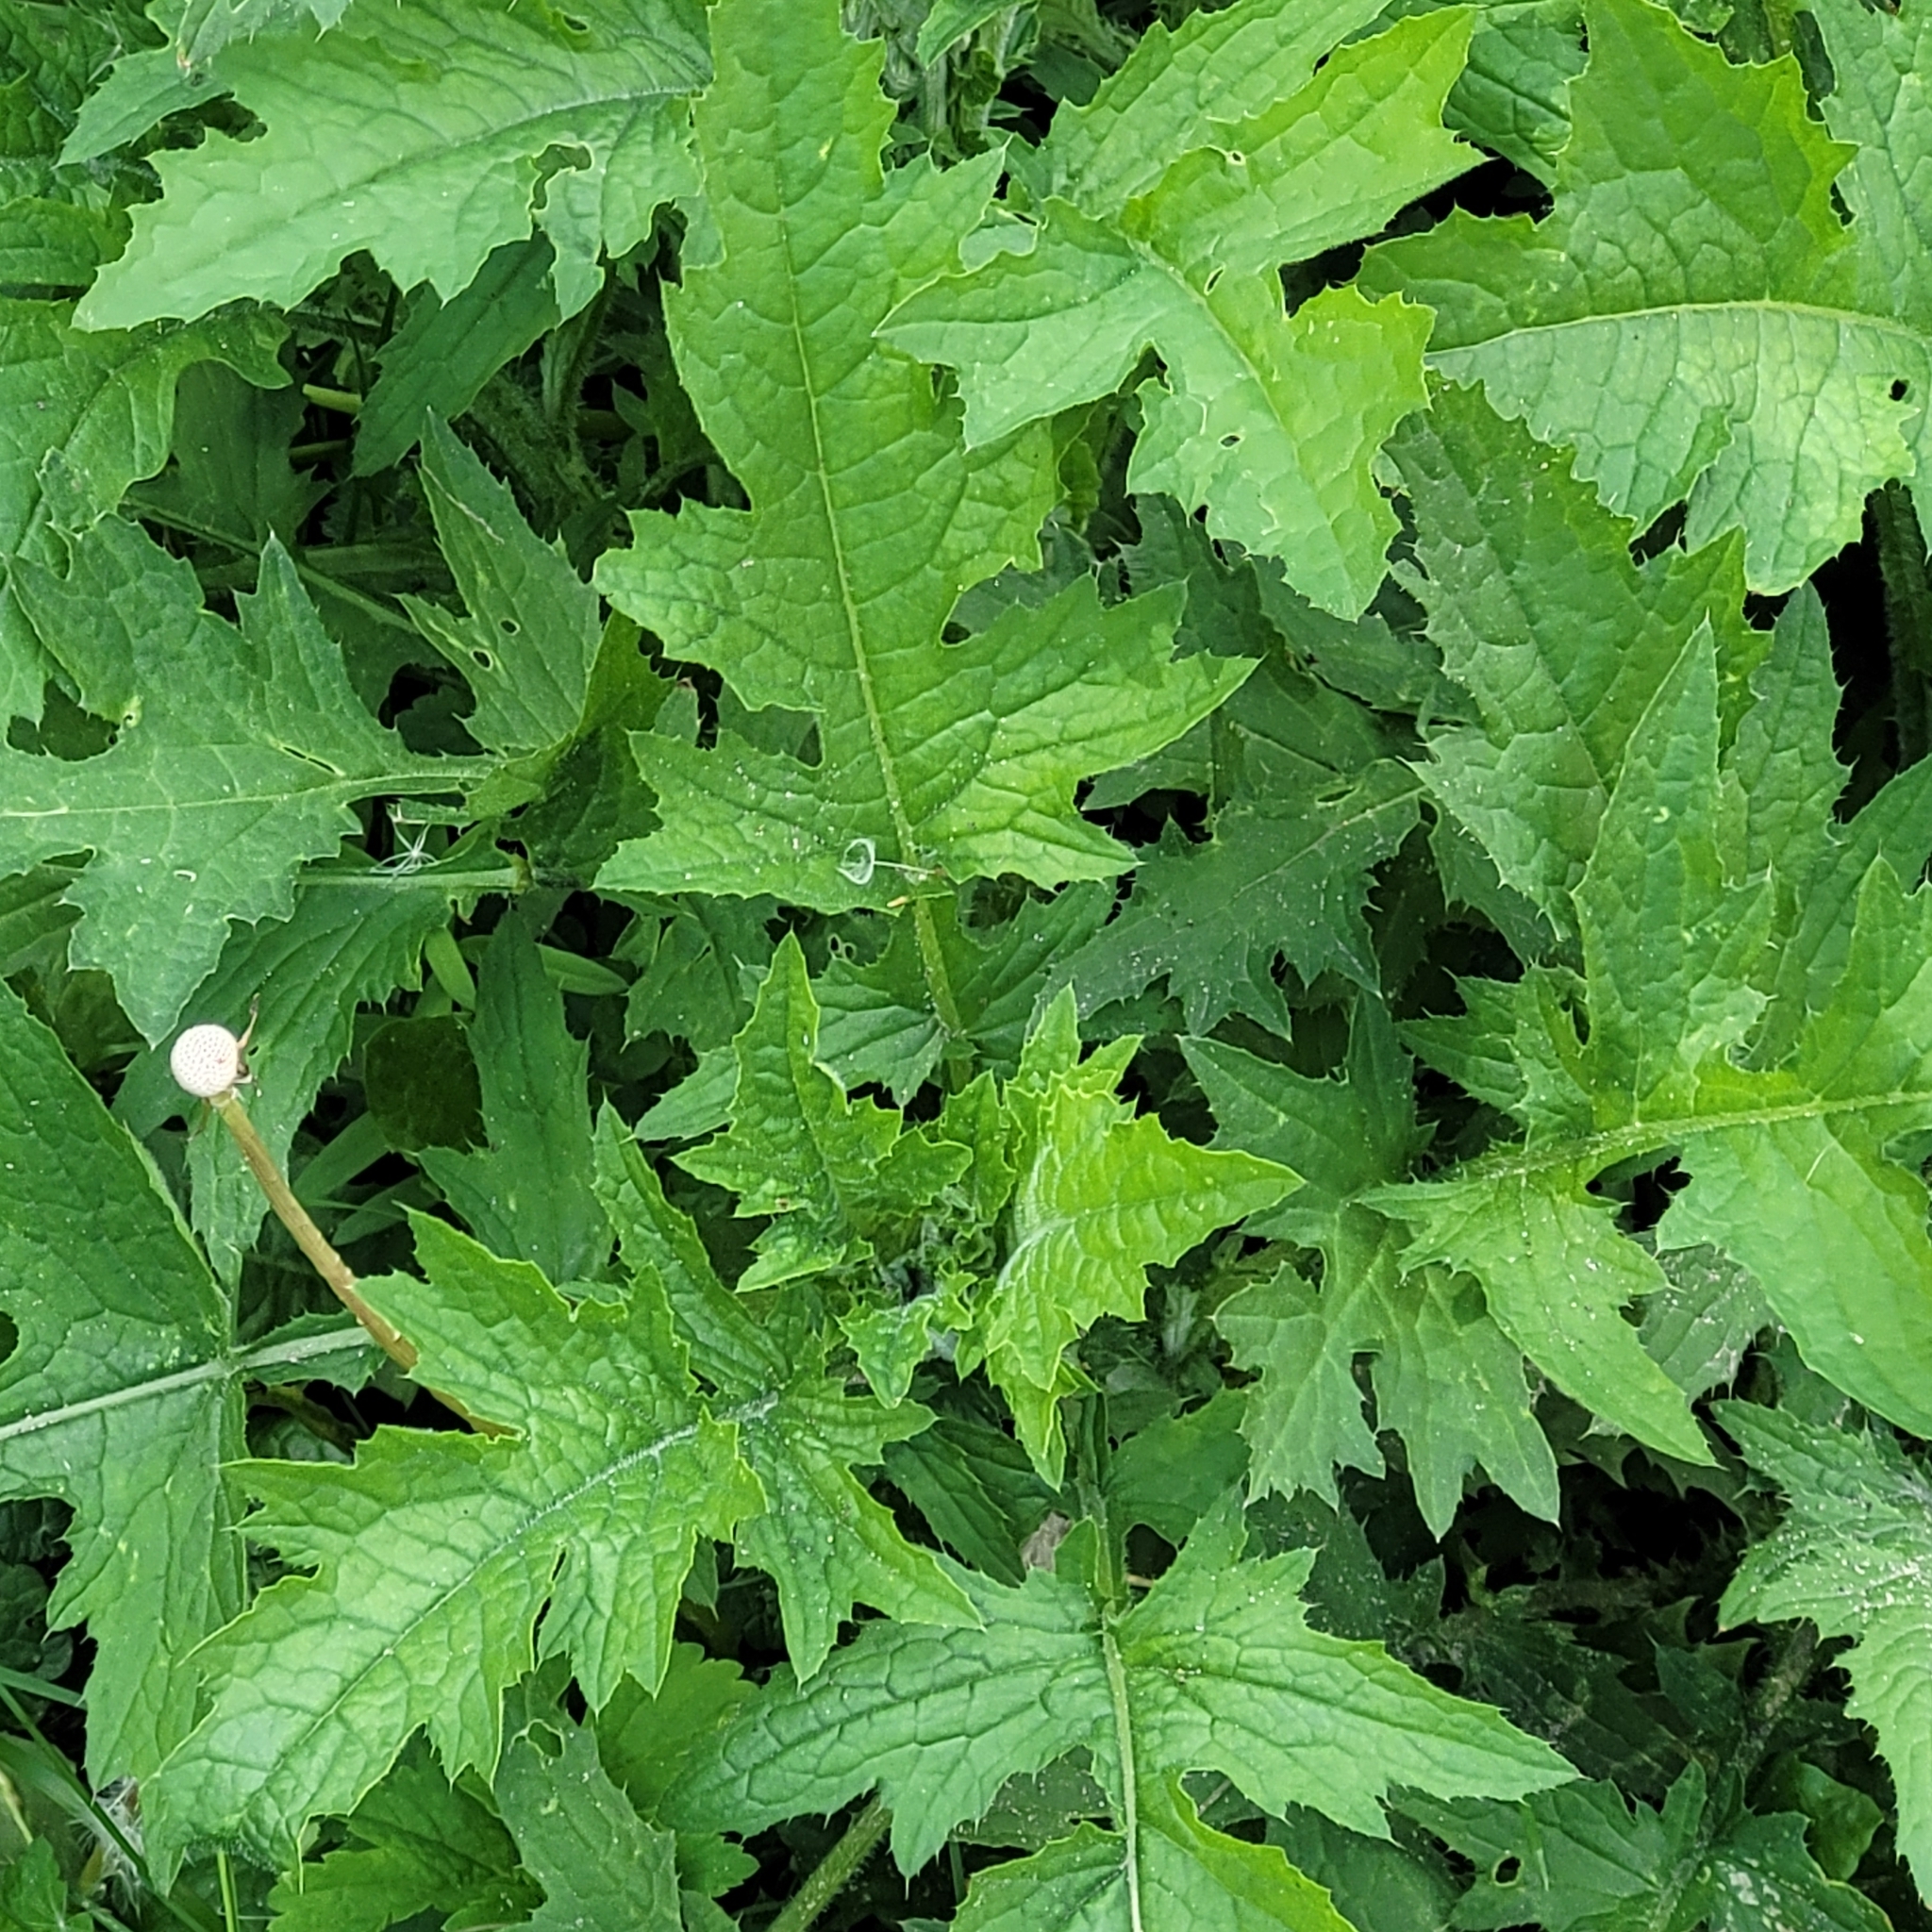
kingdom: Plantae
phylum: Tracheophyta
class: Magnoliopsida
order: Asterales
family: Asteraceae
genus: Carduus
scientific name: Carduus crispus
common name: Welted thistle
